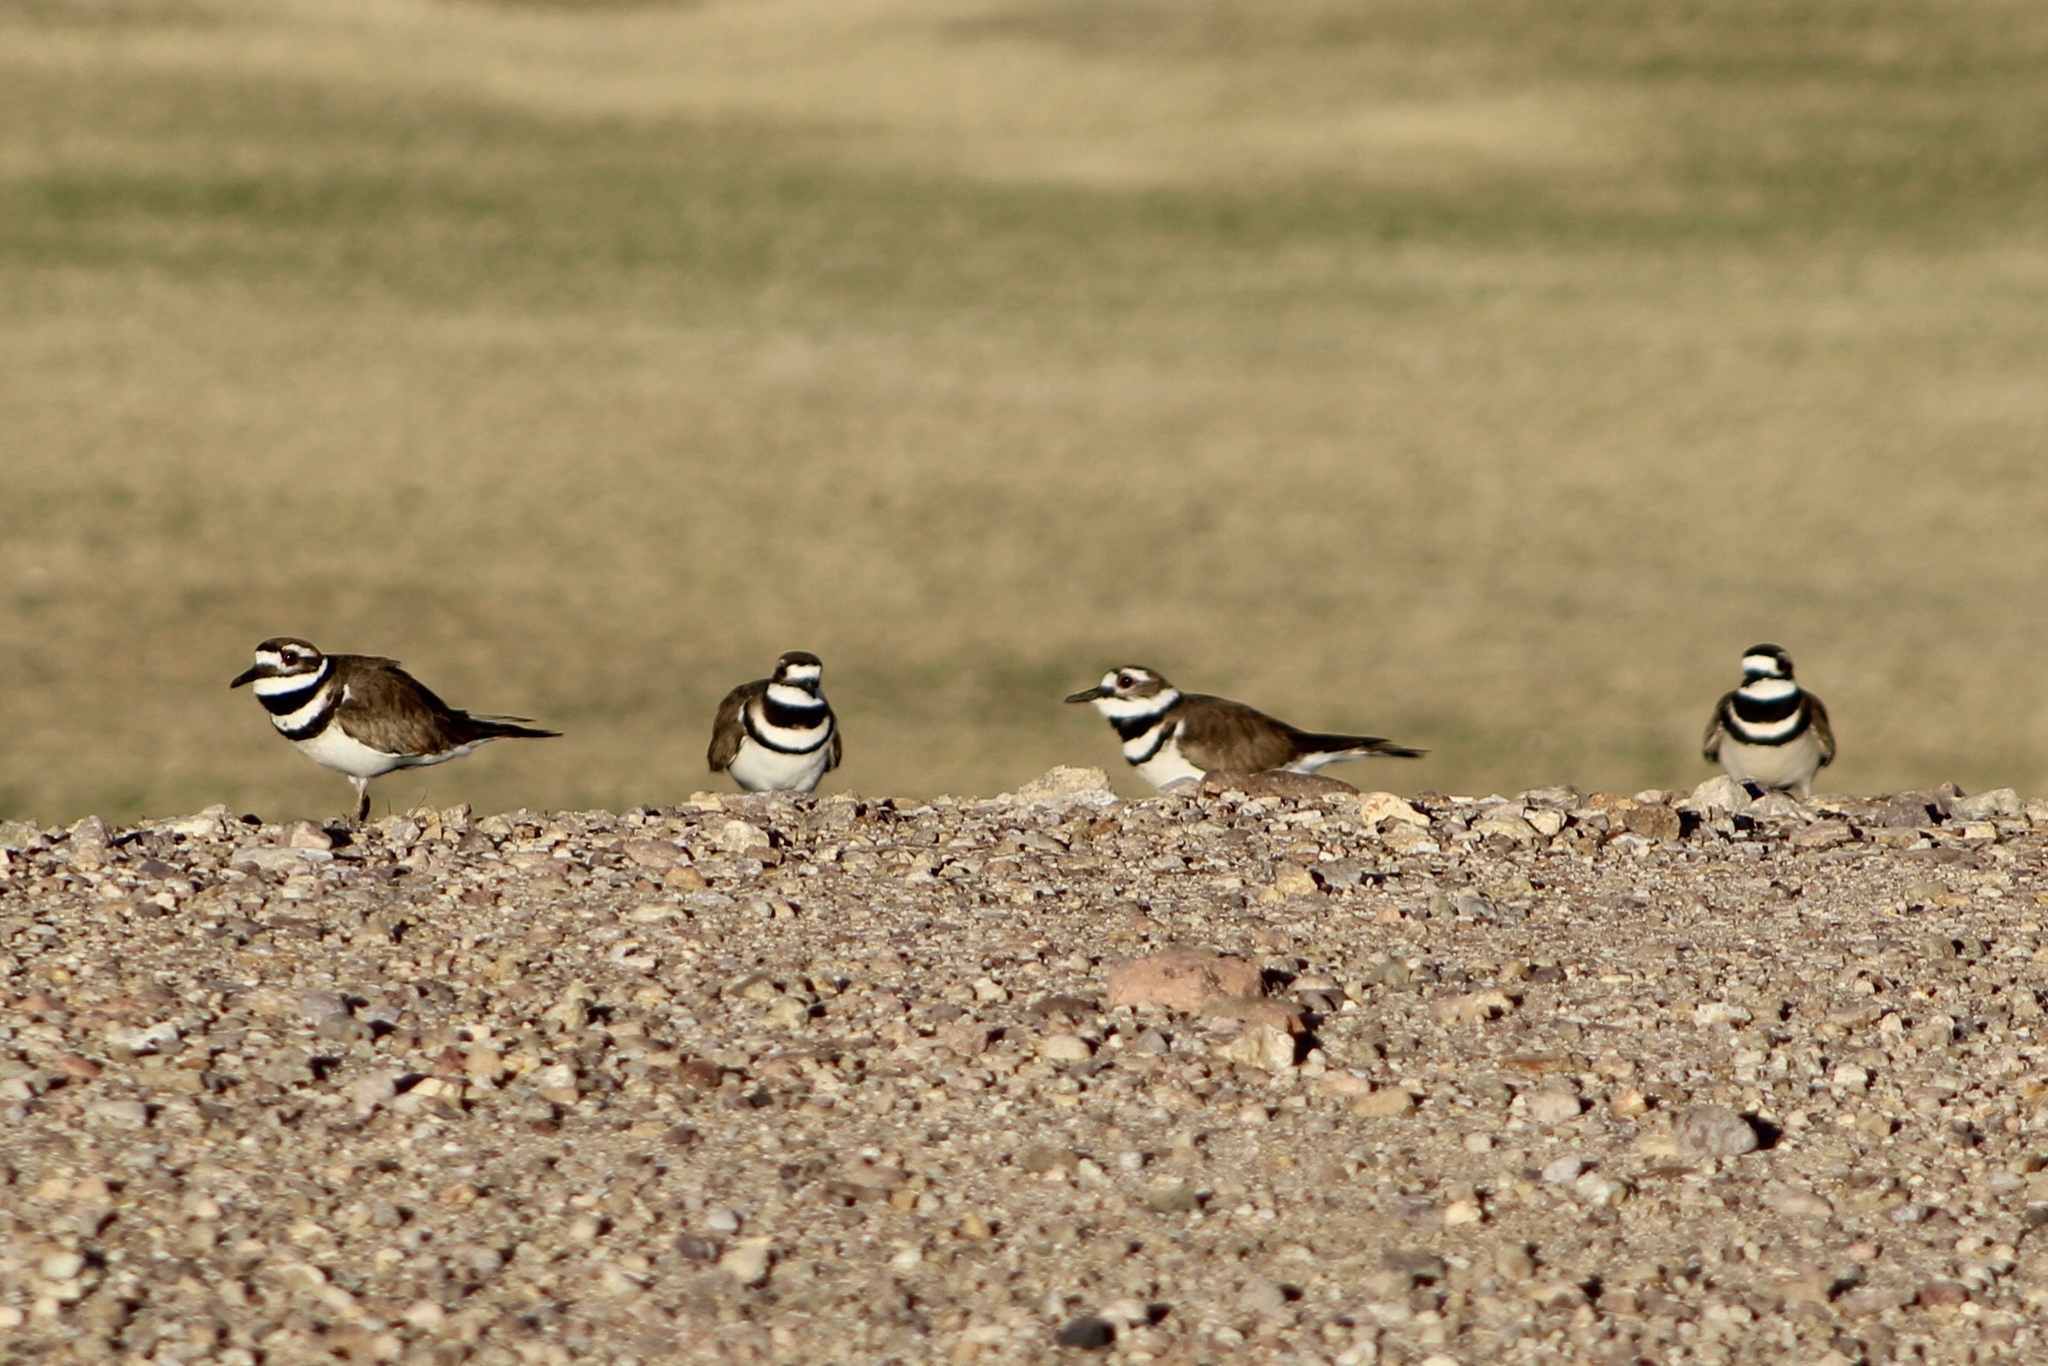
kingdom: Animalia
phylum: Chordata
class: Aves
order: Charadriiformes
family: Charadriidae
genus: Charadrius
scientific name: Charadrius vociferus
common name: Killdeer
